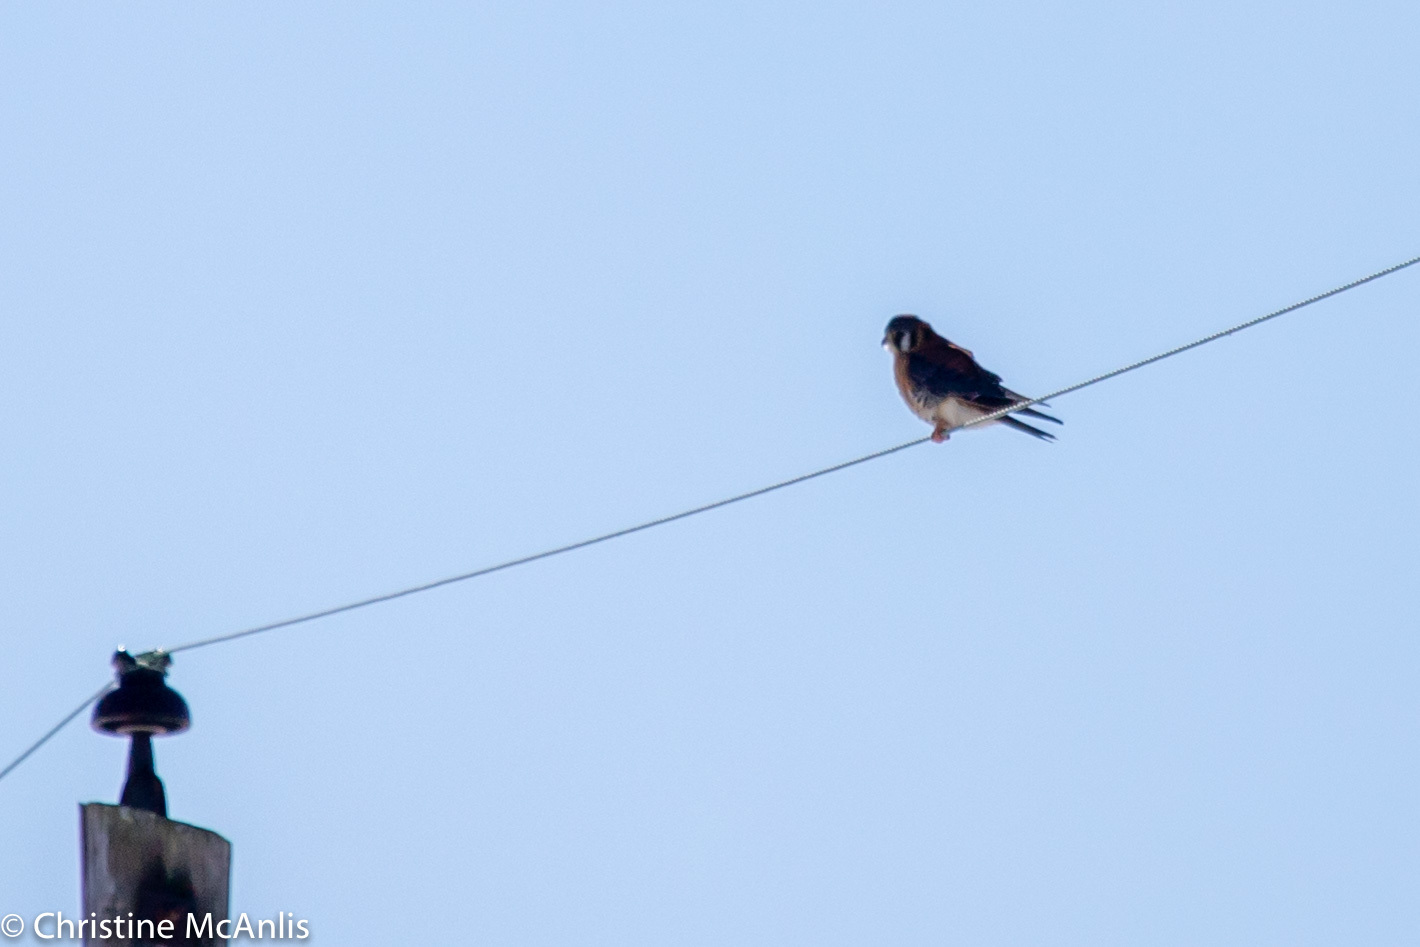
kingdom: Animalia
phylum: Chordata
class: Aves
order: Falconiformes
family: Falconidae
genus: Falco
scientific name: Falco sparverius
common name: American kestrel
